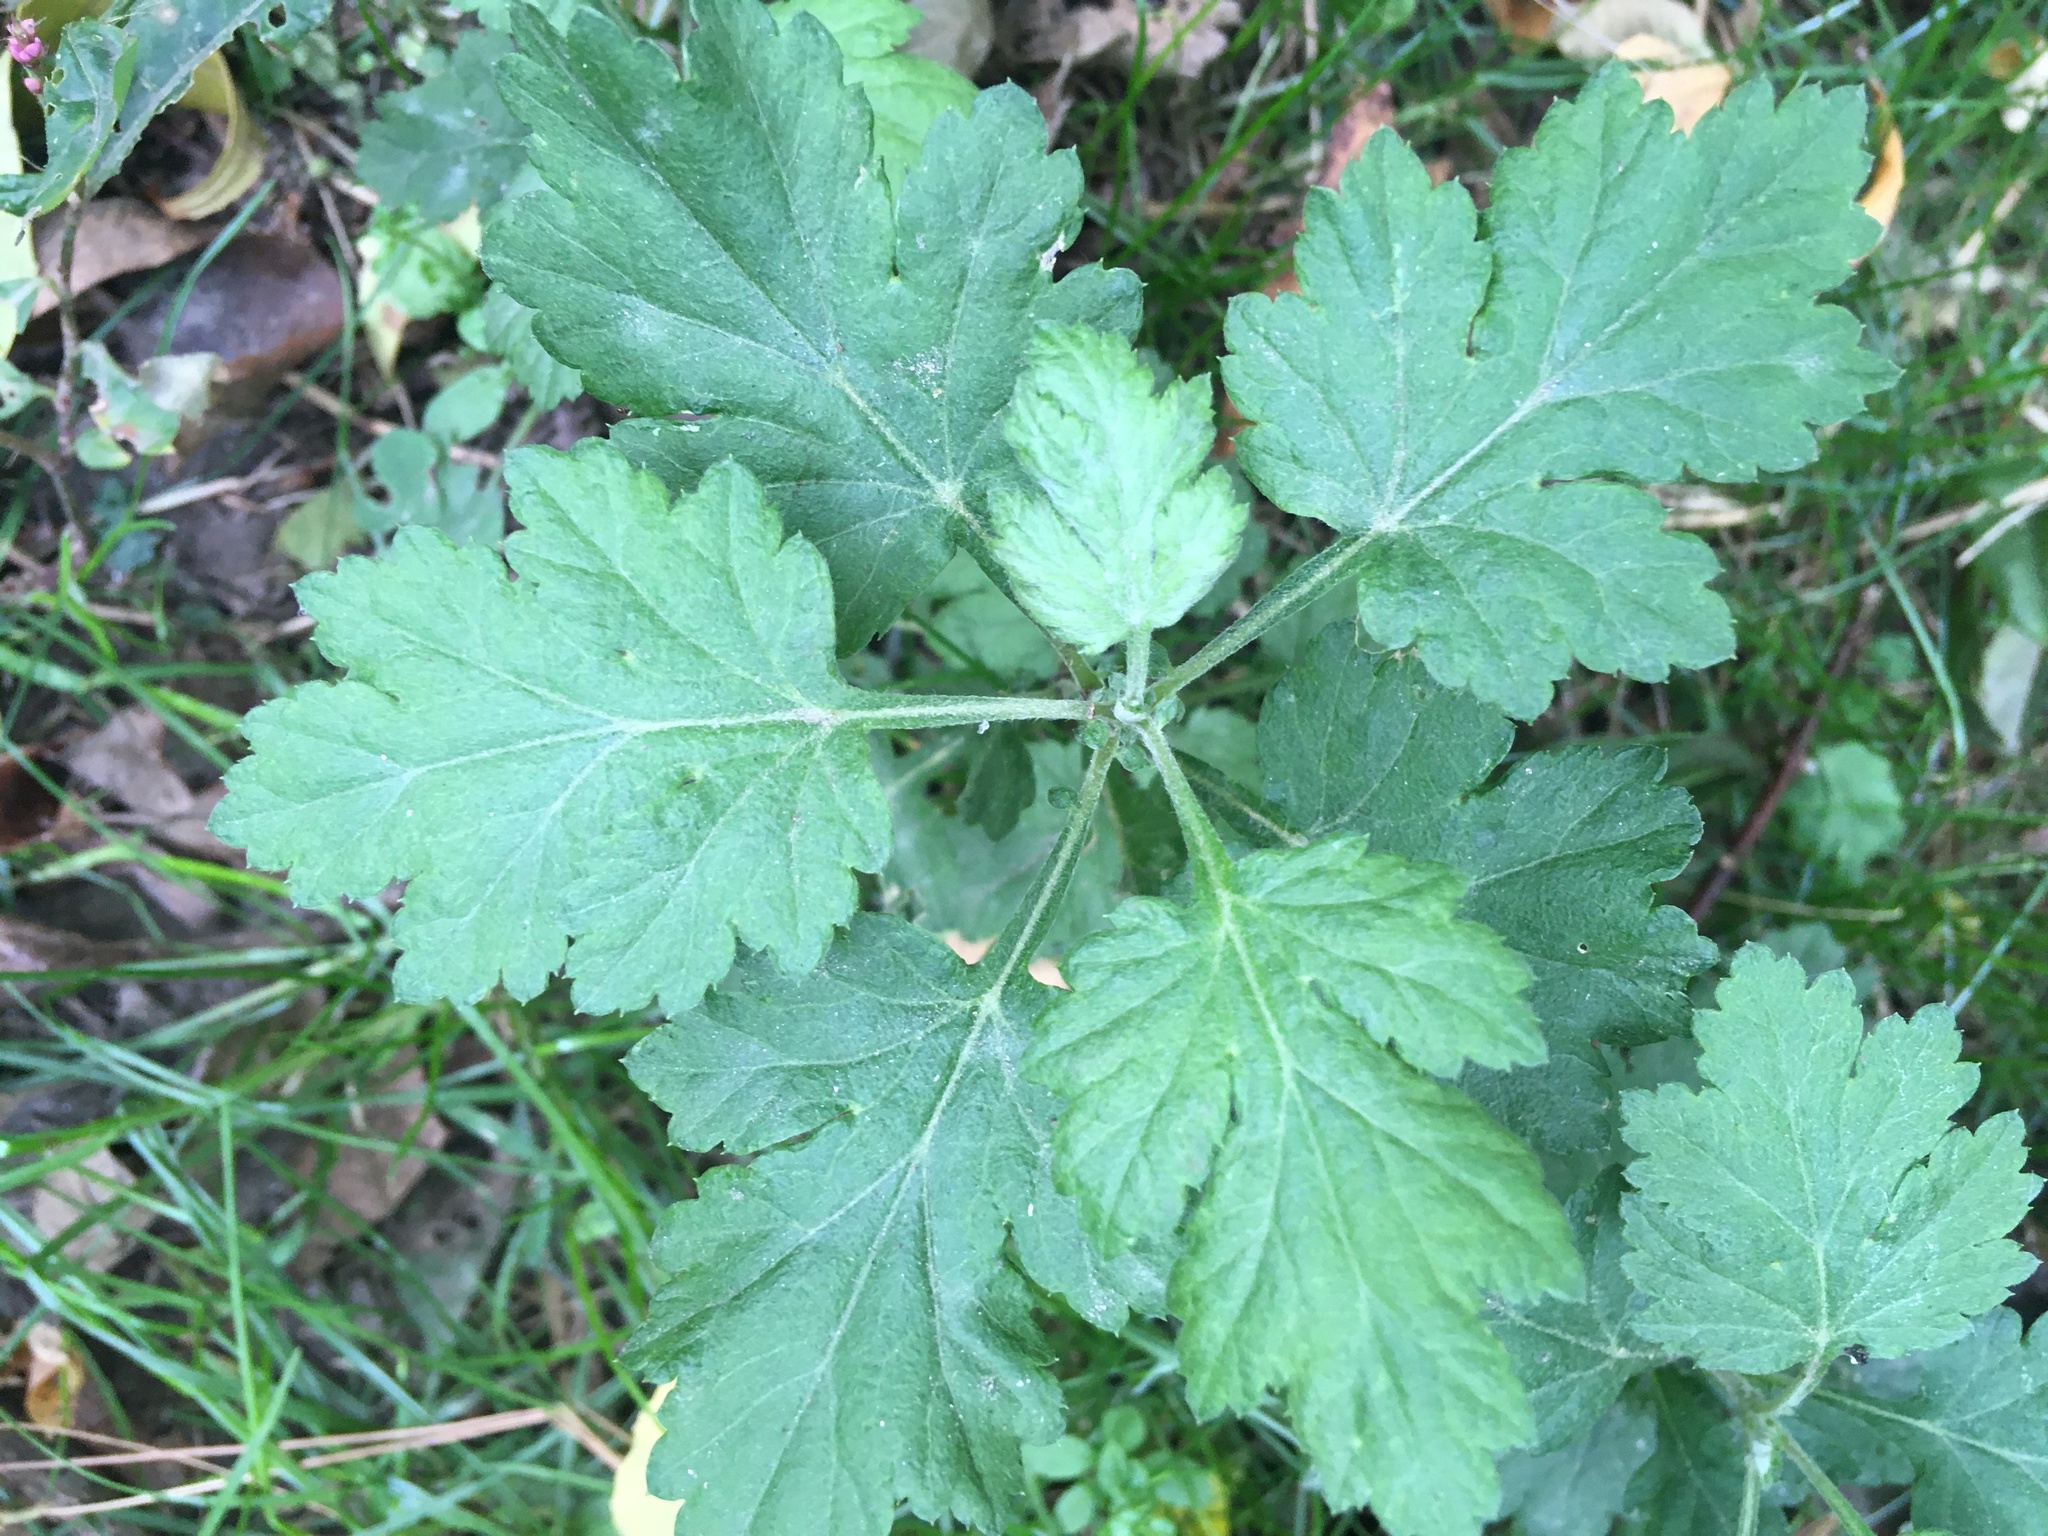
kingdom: Plantae
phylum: Tracheophyta
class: Magnoliopsida
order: Asterales
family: Asteraceae
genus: Artemisia
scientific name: Artemisia vulgaris
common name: Mugwort
